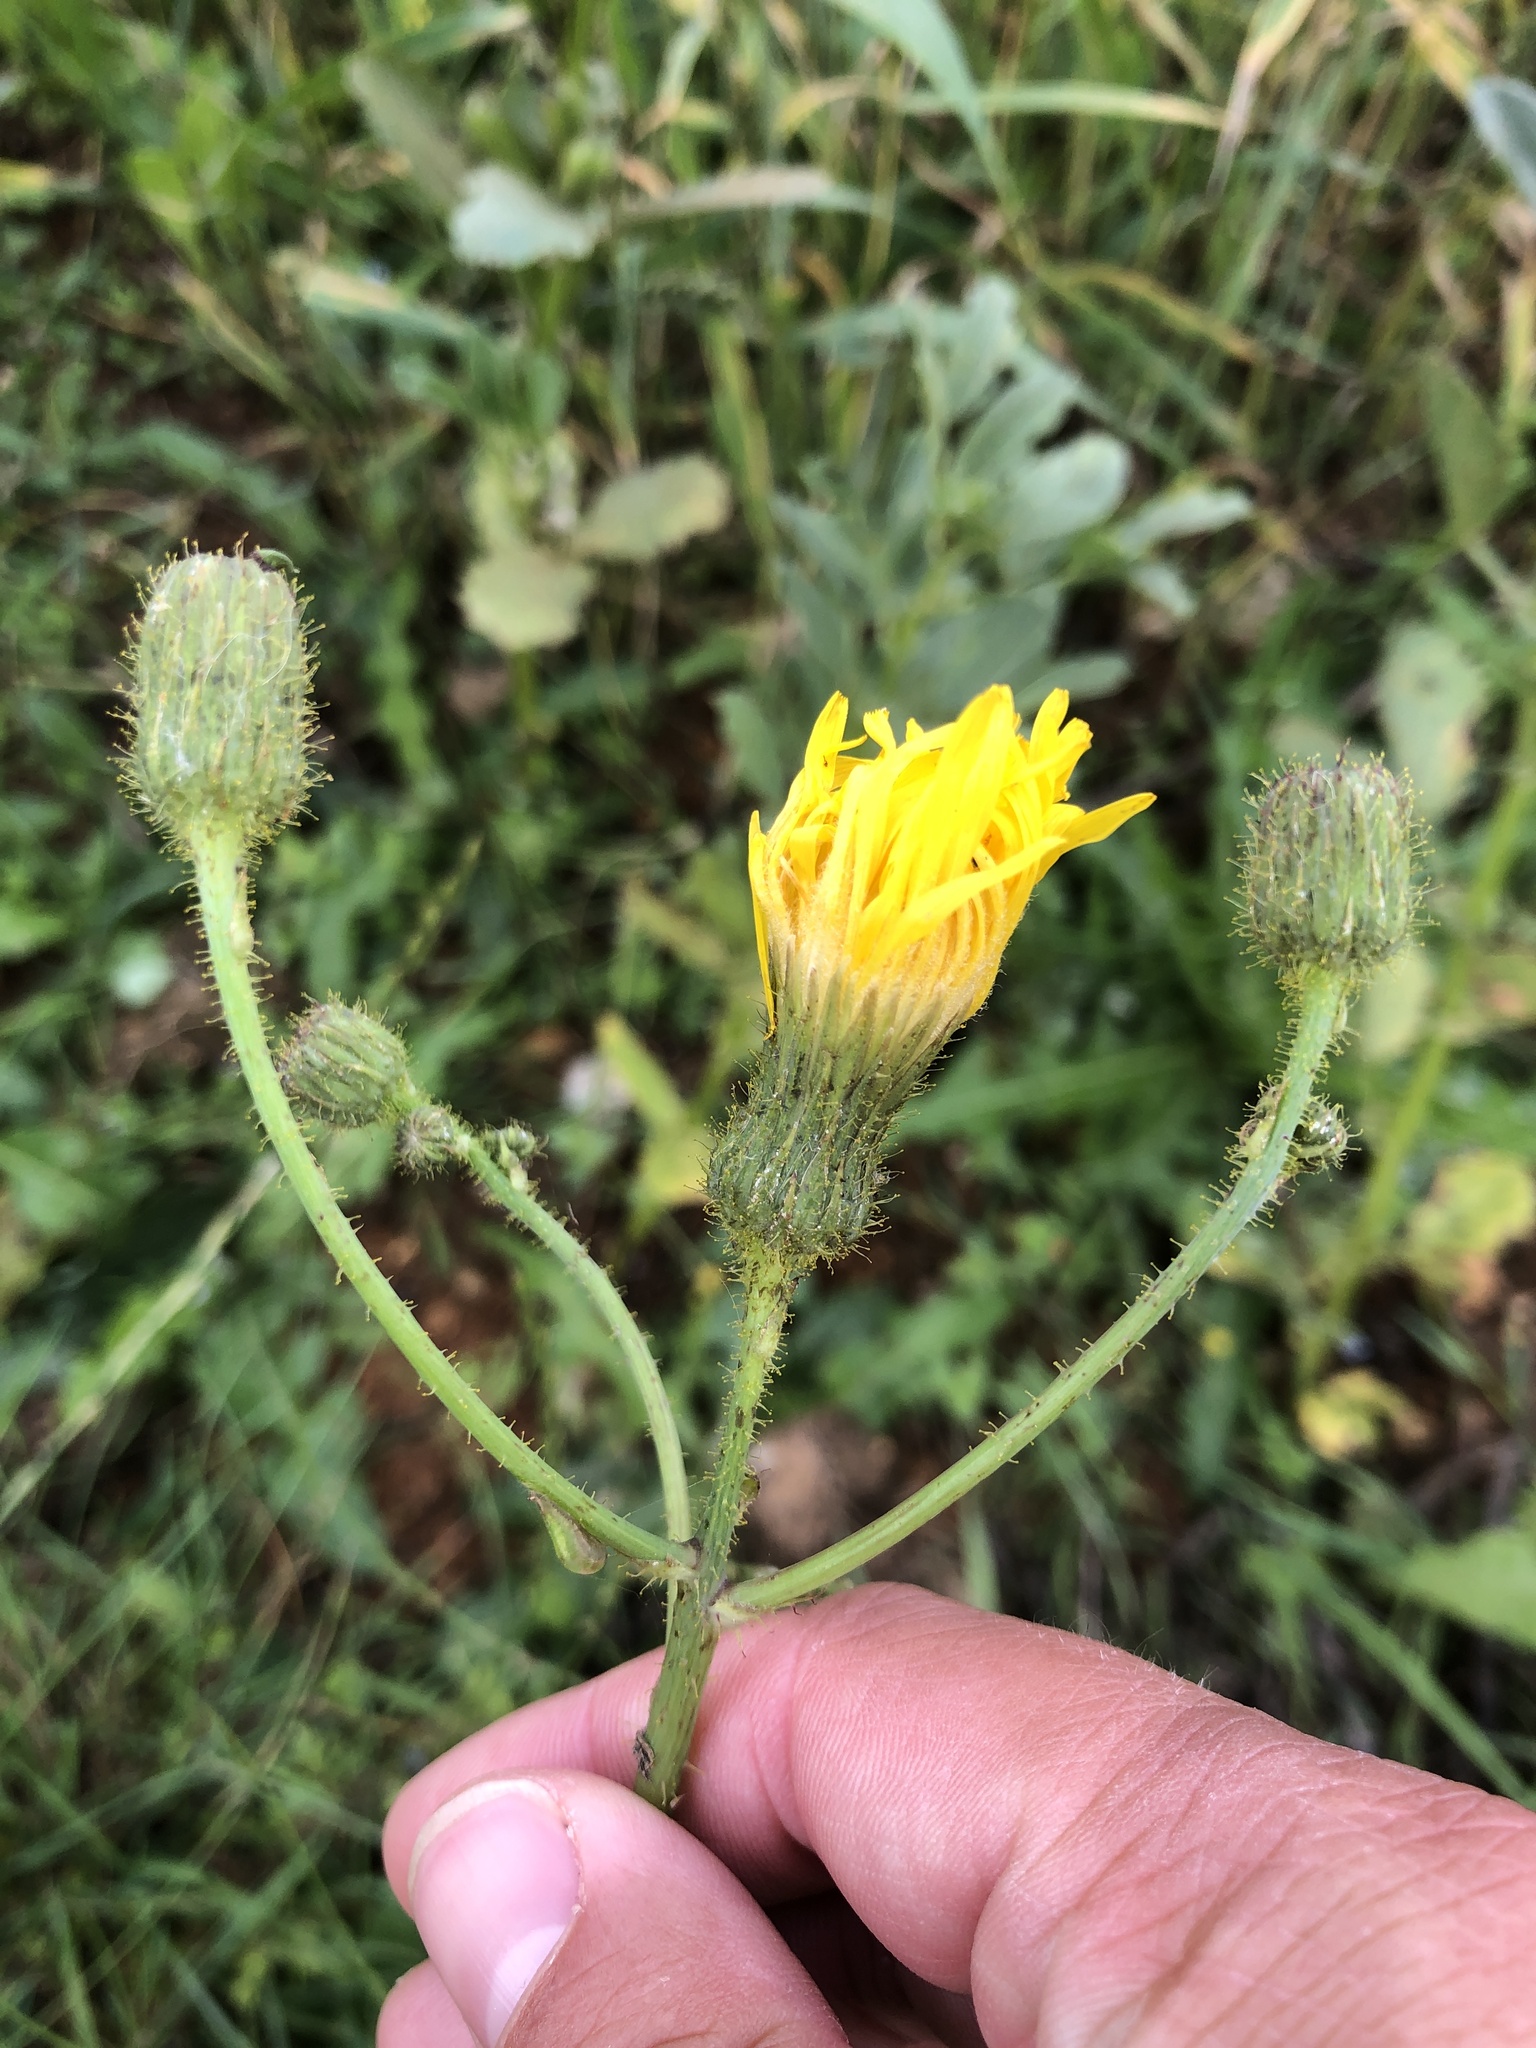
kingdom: Plantae
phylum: Tracheophyta
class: Magnoliopsida
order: Asterales
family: Asteraceae
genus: Sonchus
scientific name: Sonchus arvensis
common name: Perennial sow-thistle
